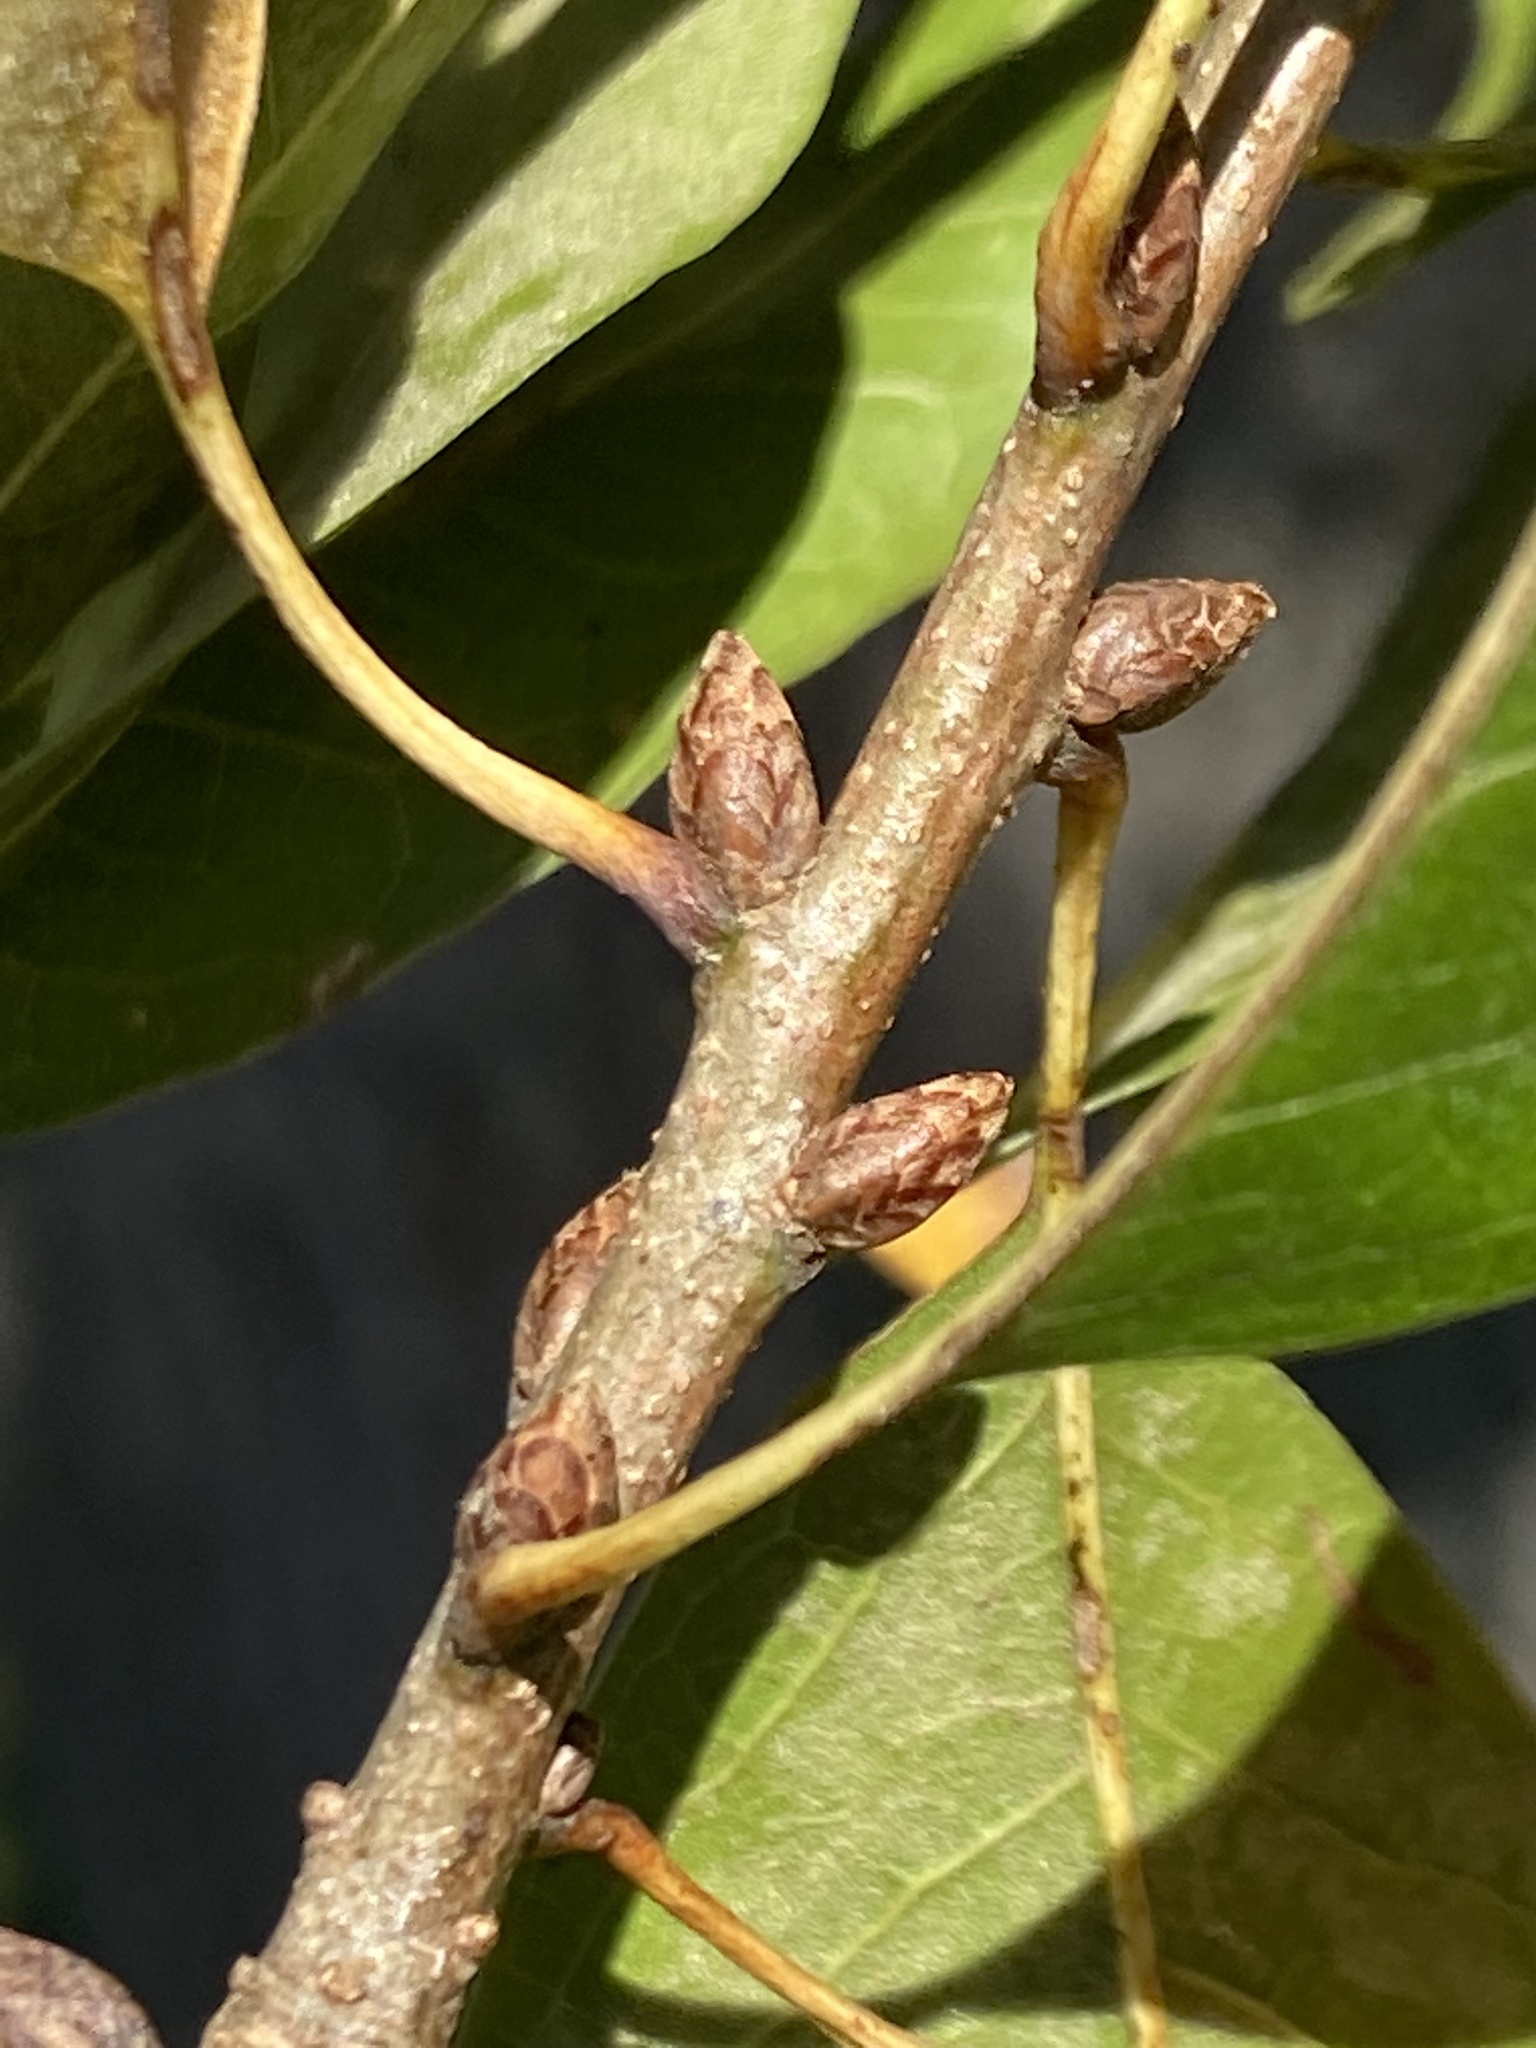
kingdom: Plantae
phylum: Tracheophyta
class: Magnoliopsida
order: Fagales
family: Fagaceae
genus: Quercus
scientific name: Quercus imbricaria
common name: Shingle oak
